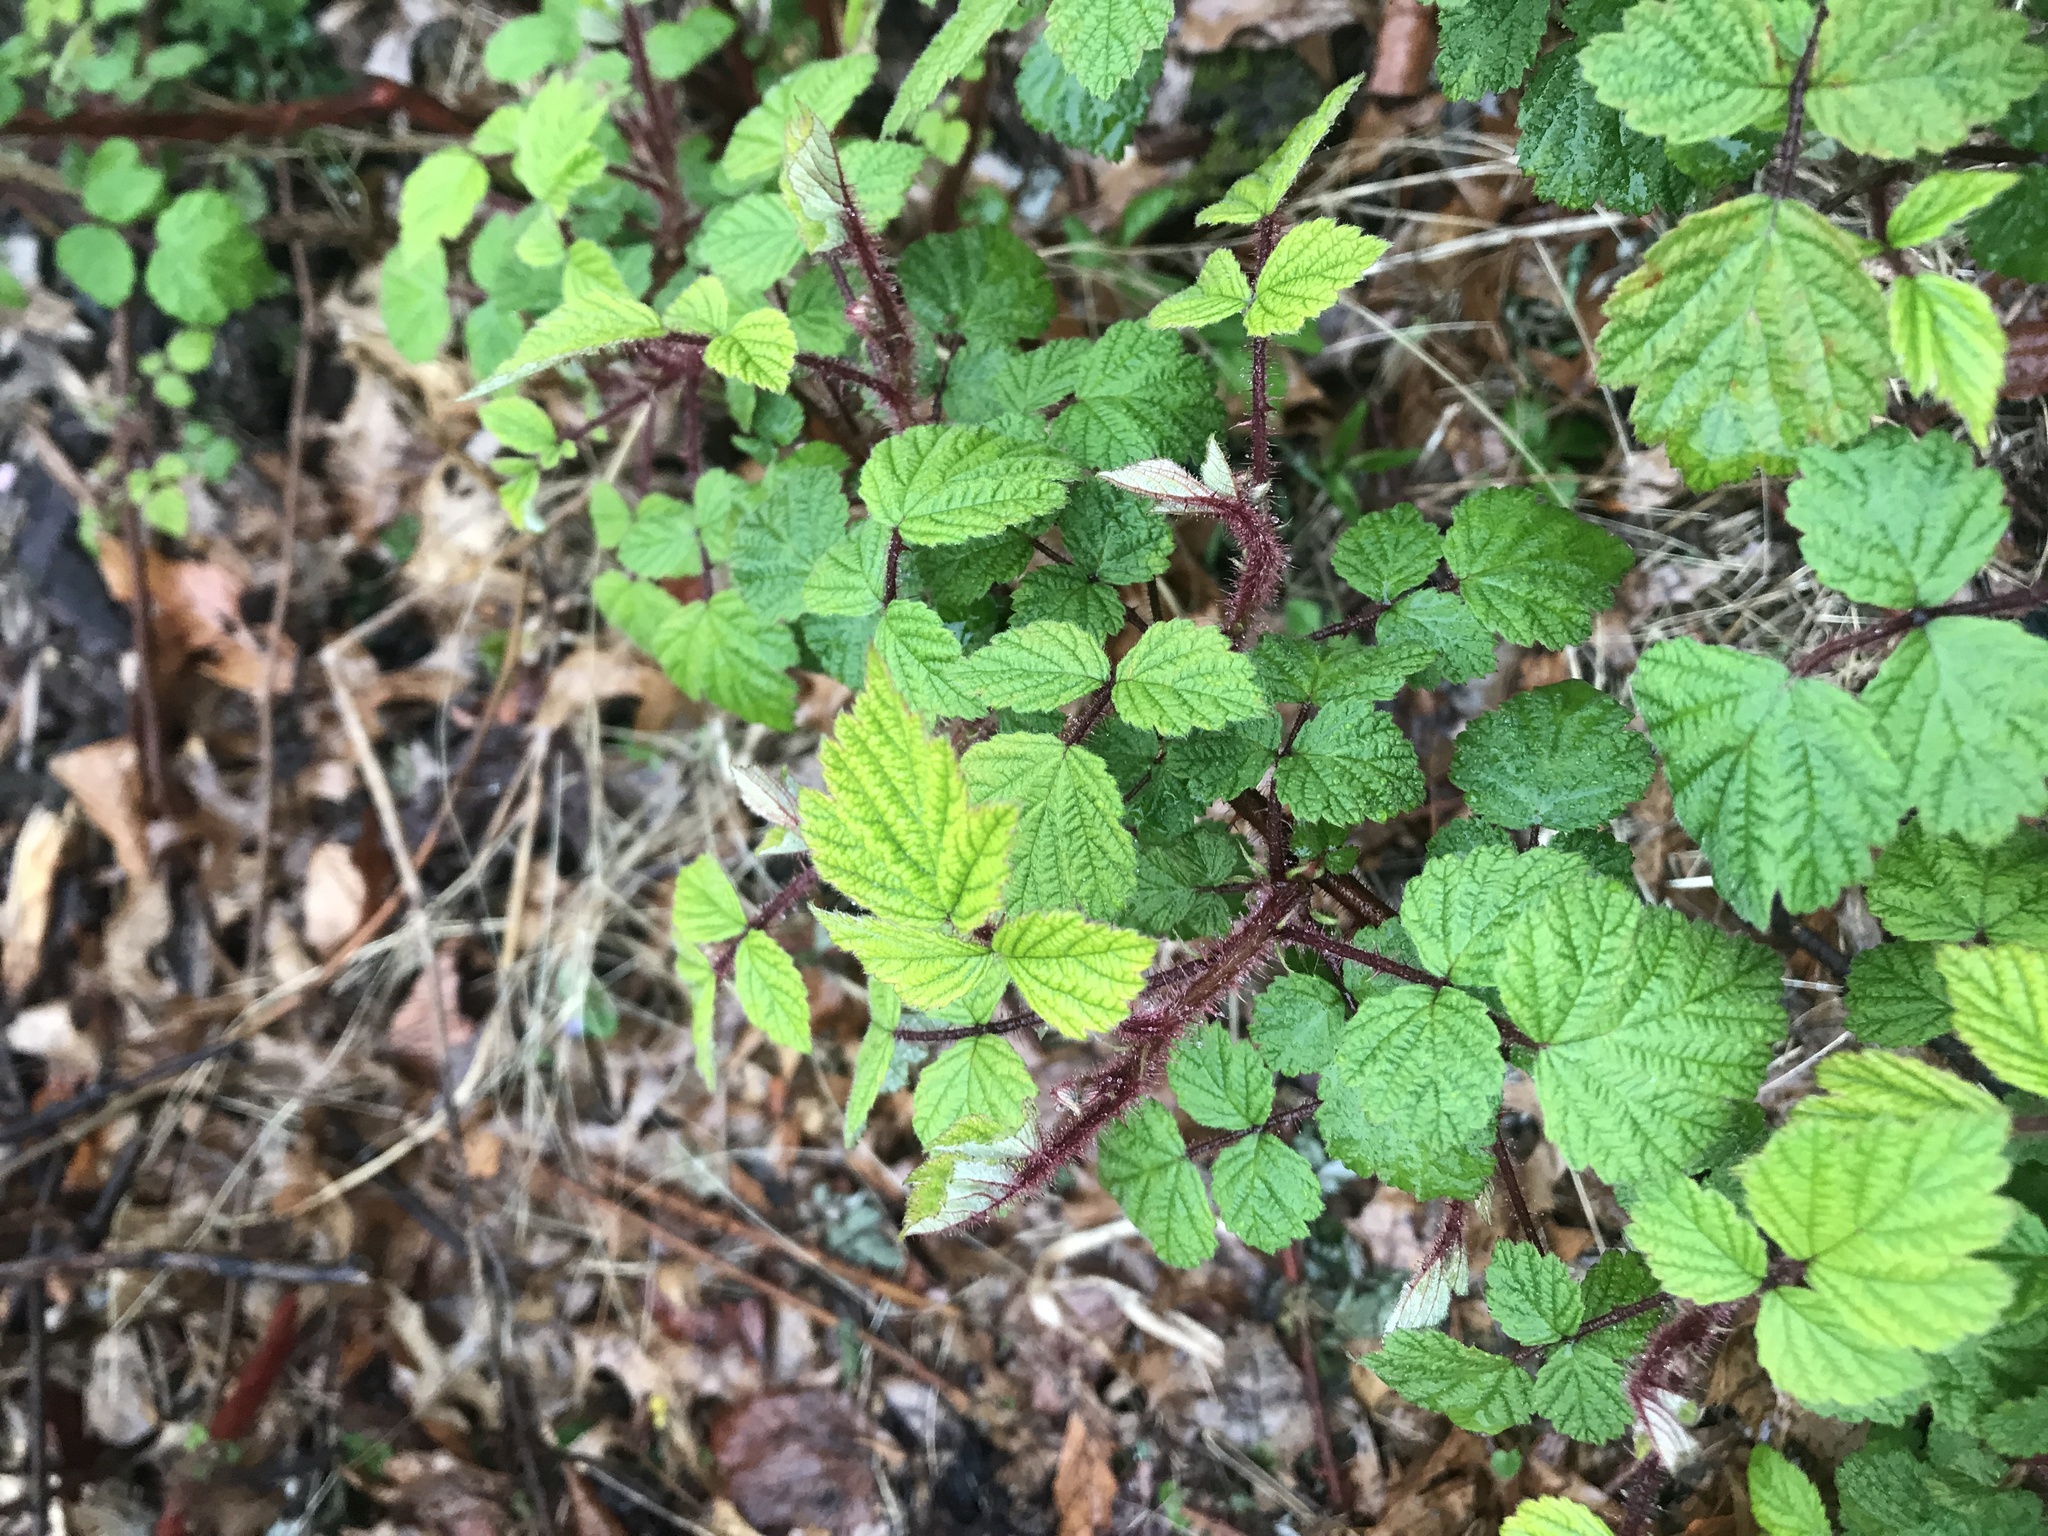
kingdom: Plantae
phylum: Tracheophyta
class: Magnoliopsida
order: Rosales
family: Rosaceae
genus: Rubus
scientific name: Rubus phoenicolasius
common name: Japanese wineberry
